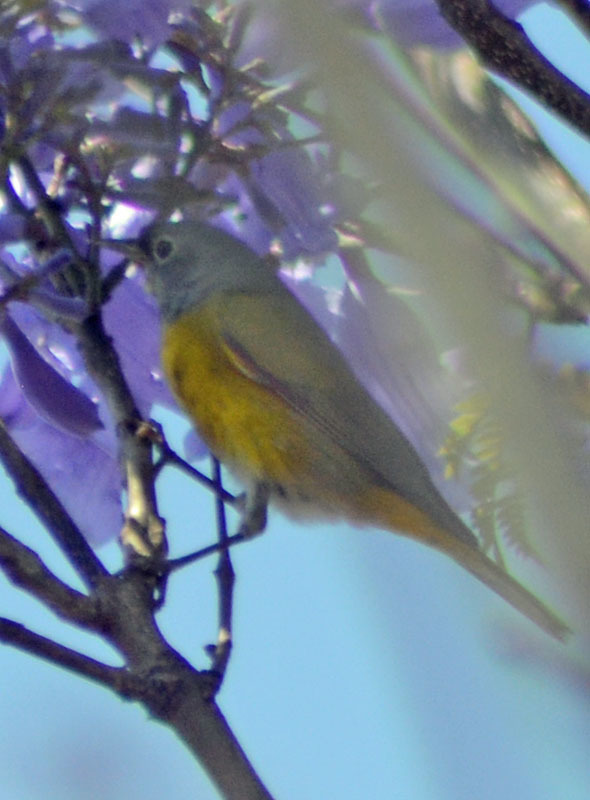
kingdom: Animalia
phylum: Chordata
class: Aves
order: Passeriformes
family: Parulidae
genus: Leiothlypis
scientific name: Leiothlypis ruficapilla
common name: Nashville warbler
